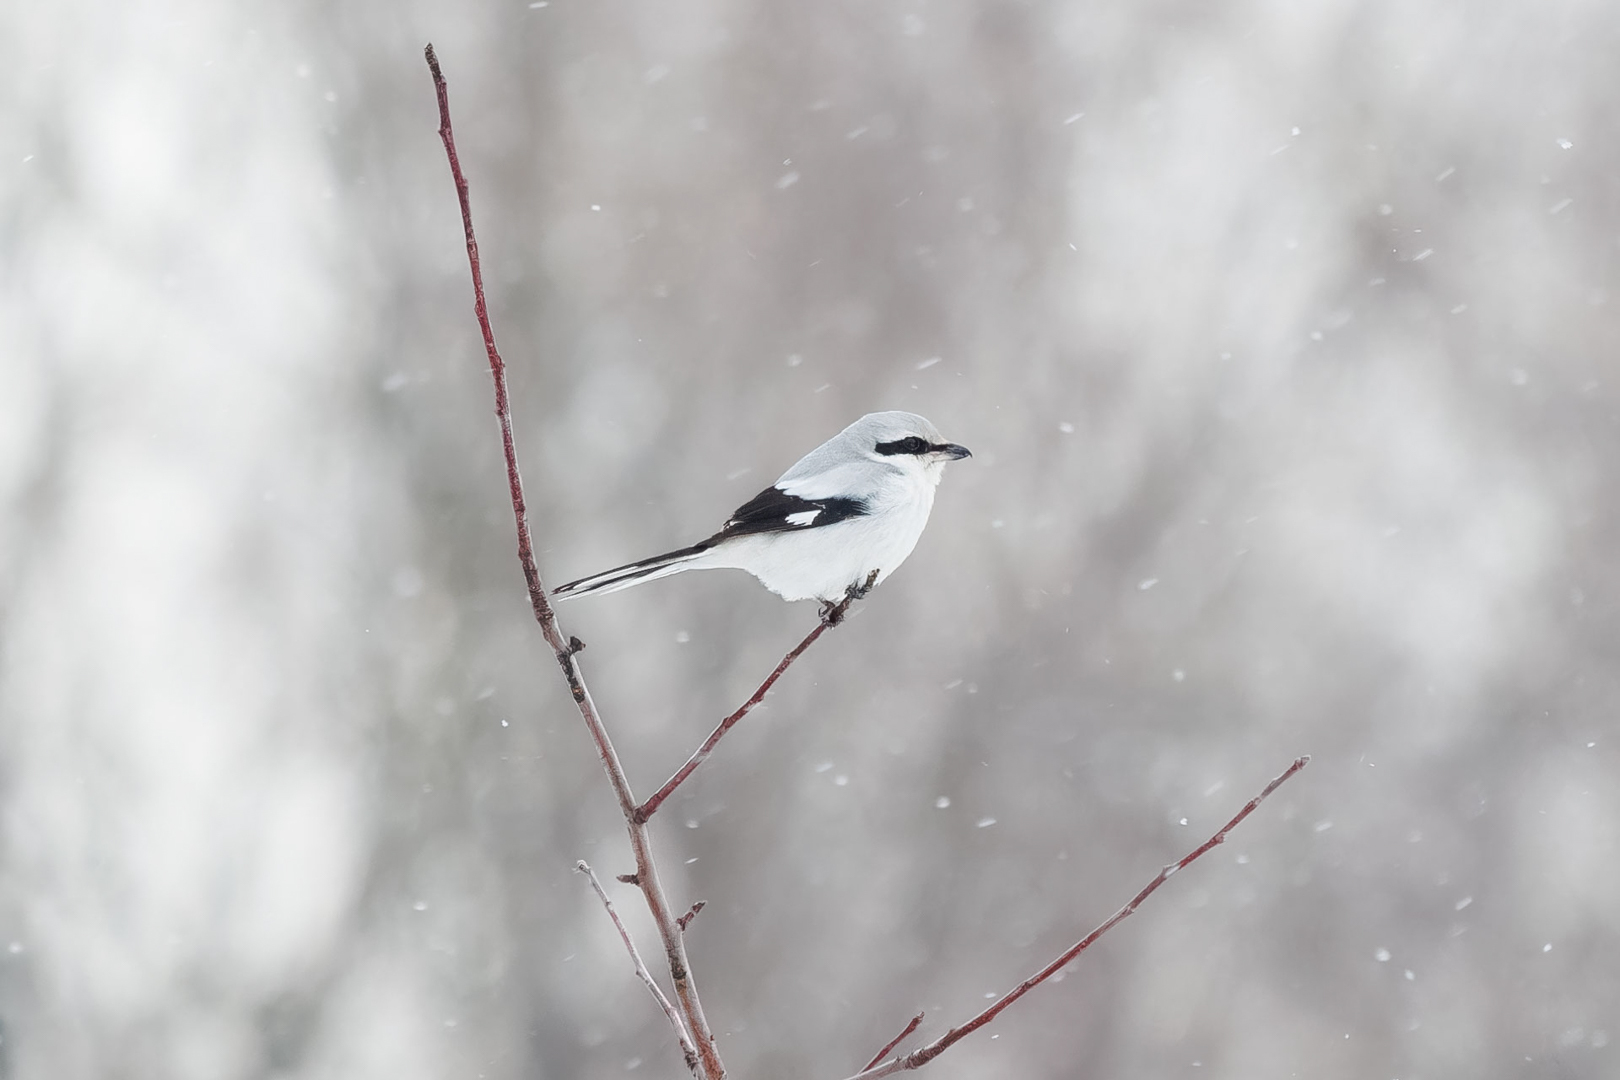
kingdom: Animalia
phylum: Chordata
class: Aves
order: Passeriformes
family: Laniidae
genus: Lanius
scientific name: Lanius excubitor
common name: Great grey shrike
